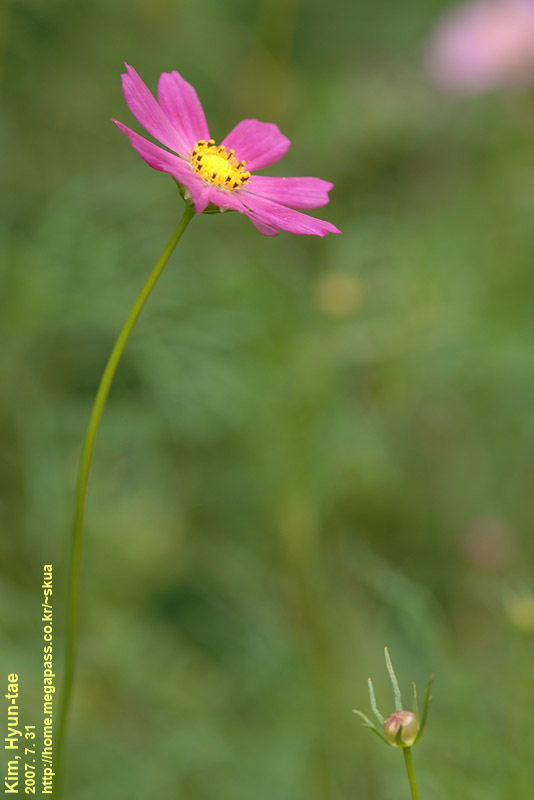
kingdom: Plantae
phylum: Tracheophyta
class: Magnoliopsida
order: Asterales
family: Asteraceae
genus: Cosmos
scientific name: Cosmos bipinnatus
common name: Garden cosmos
